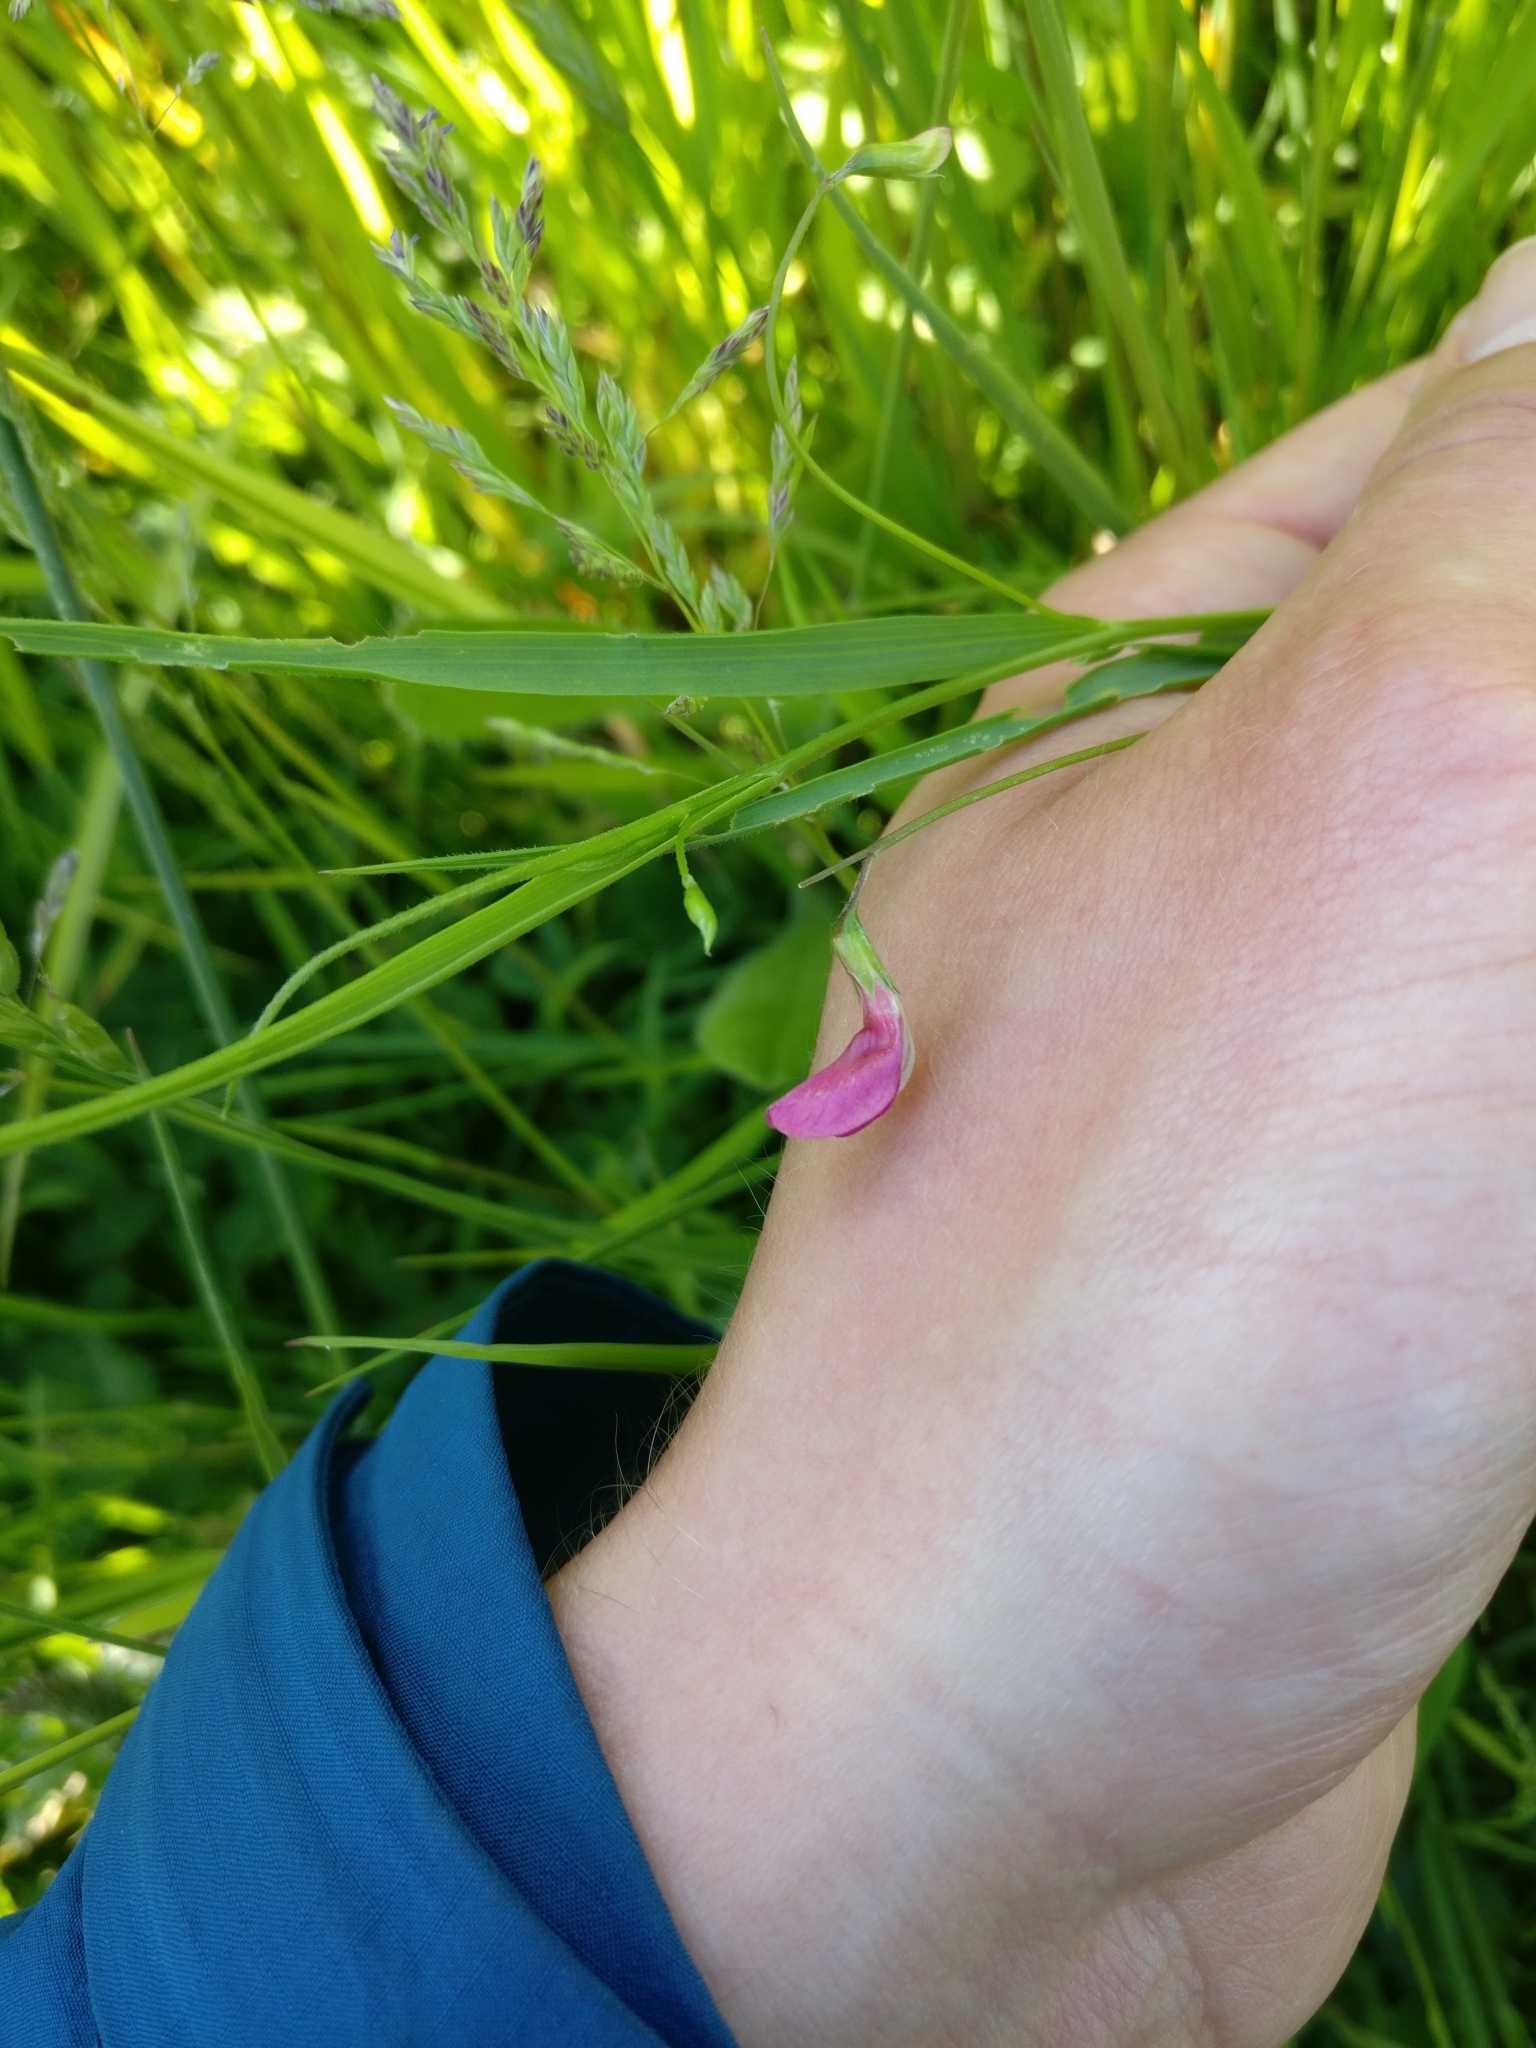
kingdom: Plantae
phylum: Tracheophyta
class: Magnoliopsida
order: Fabales
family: Fabaceae
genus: Lathyrus
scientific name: Lathyrus nissolia
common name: Grass vetchling
